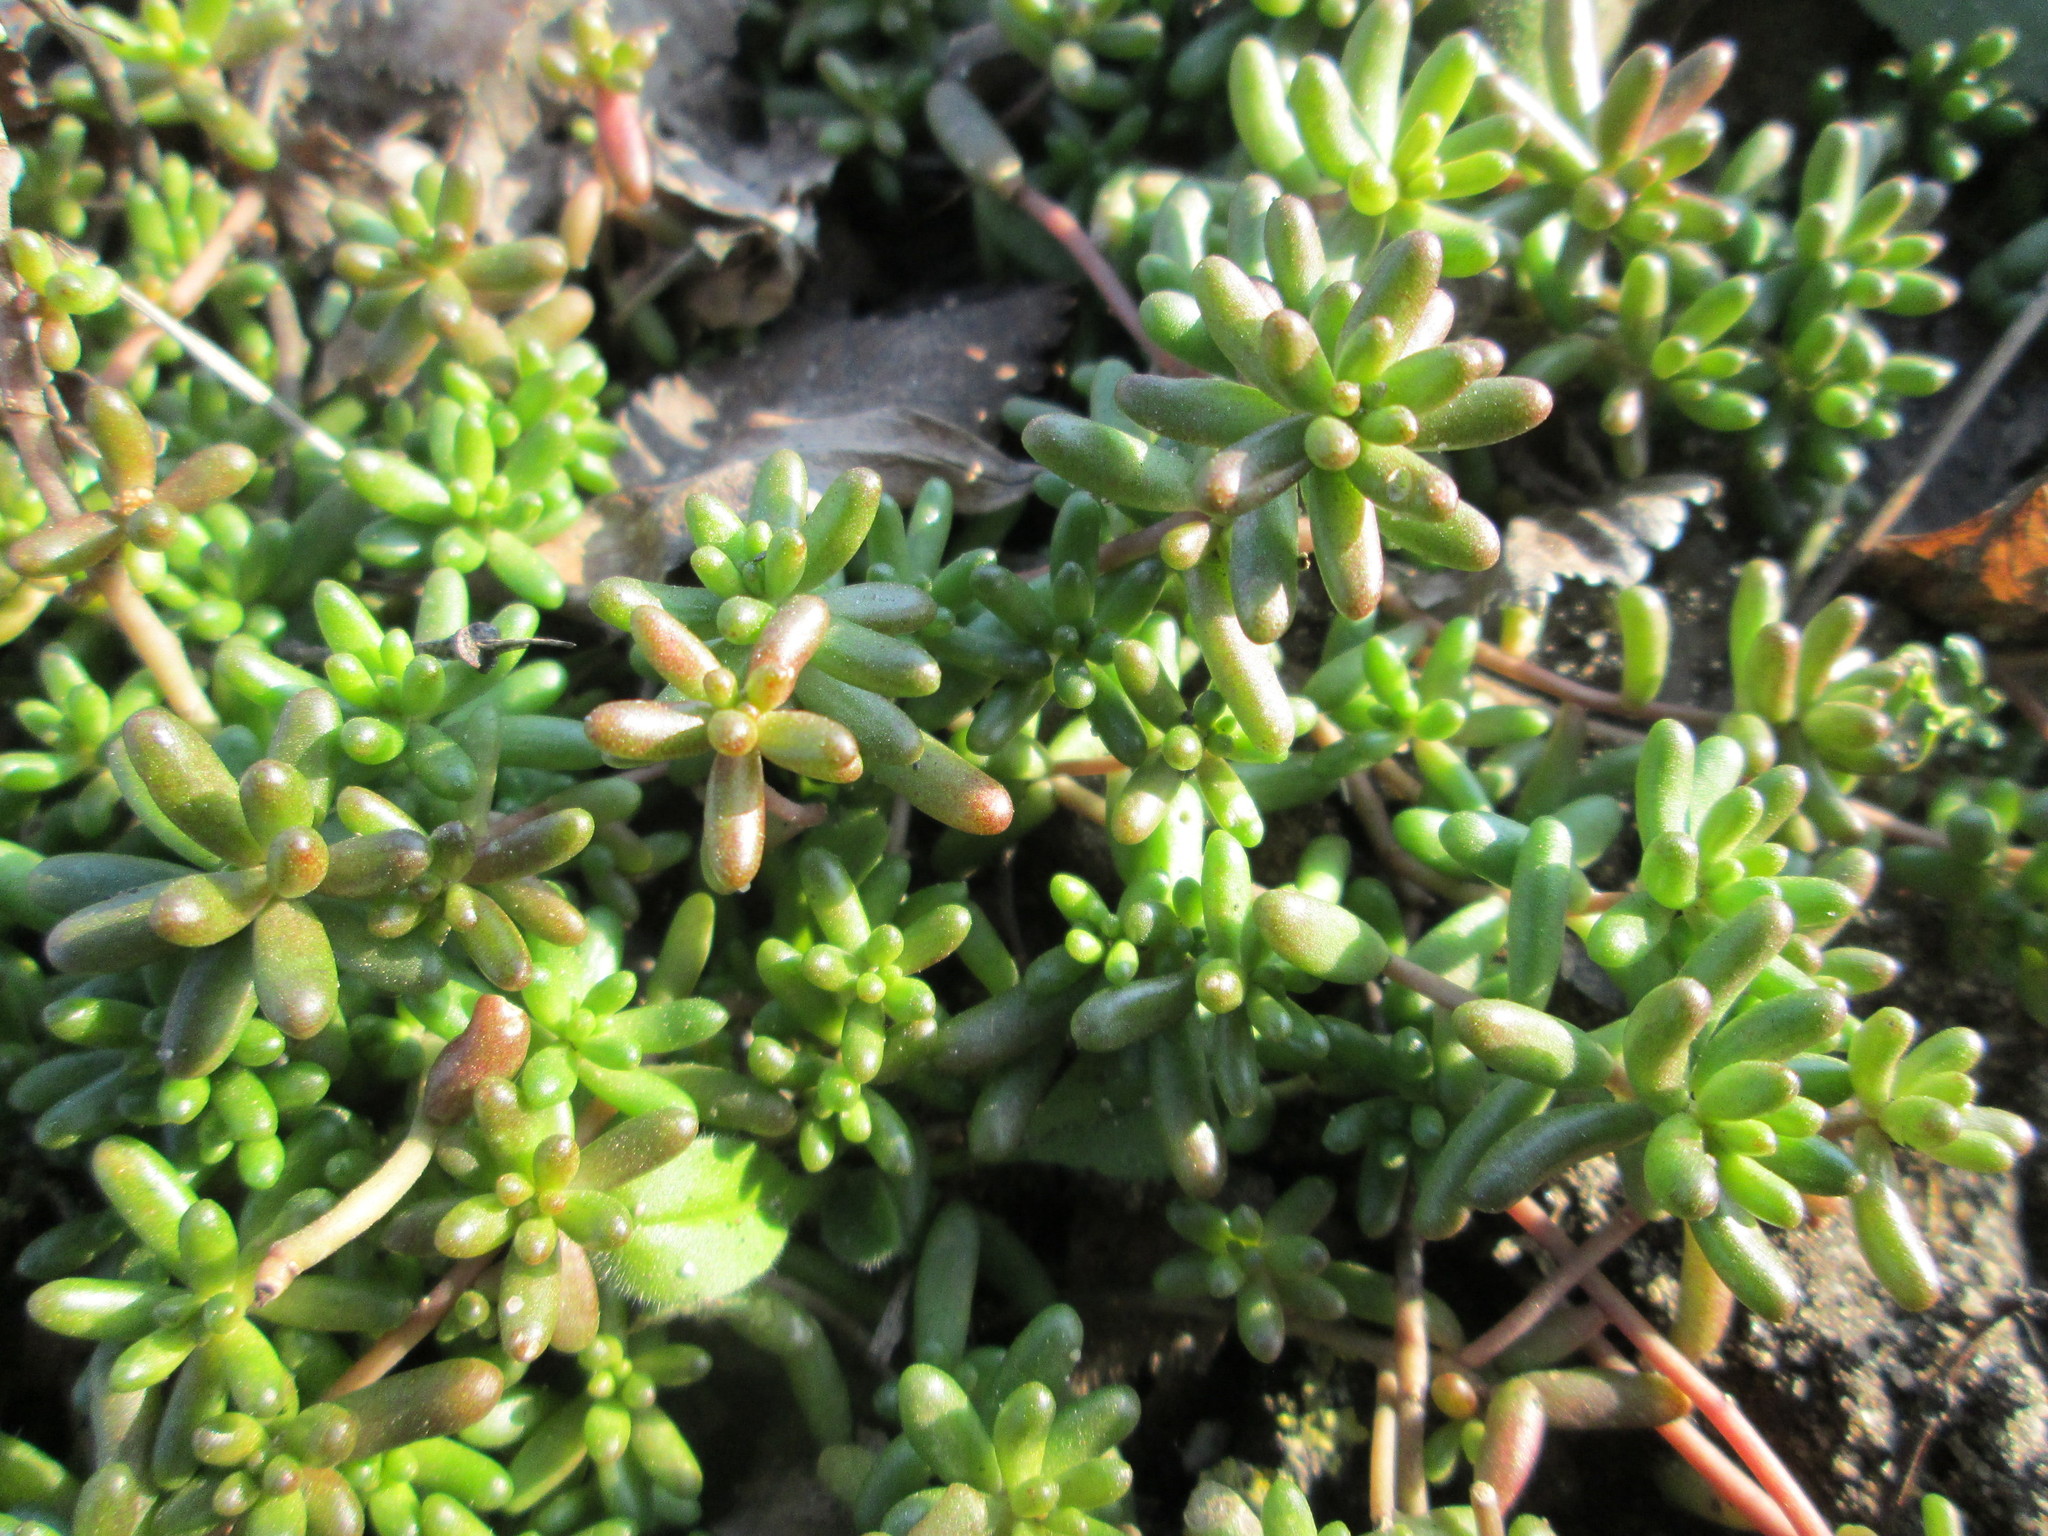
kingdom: Plantae
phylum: Tracheophyta
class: Magnoliopsida
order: Saxifragales
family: Crassulaceae
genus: Sedum
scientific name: Sedum album
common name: White stonecrop
